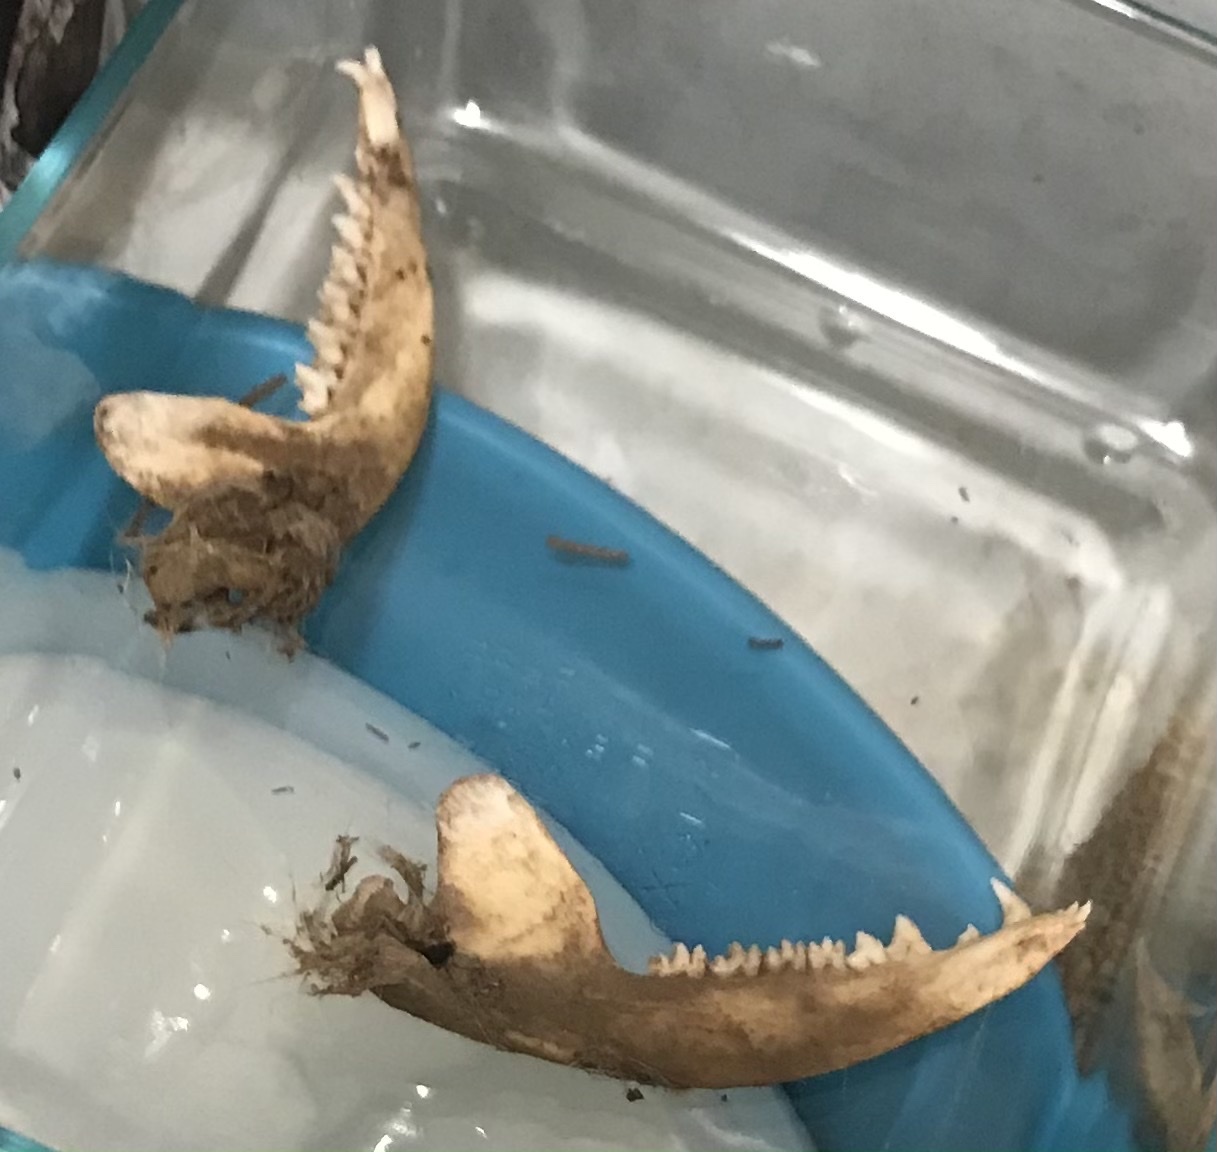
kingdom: Animalia
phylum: Chordata
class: Mammalia
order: Didelphimorphia
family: Didelphidae
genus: Didelphis
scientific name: Didelphis virginiana
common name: Virginia opossum
